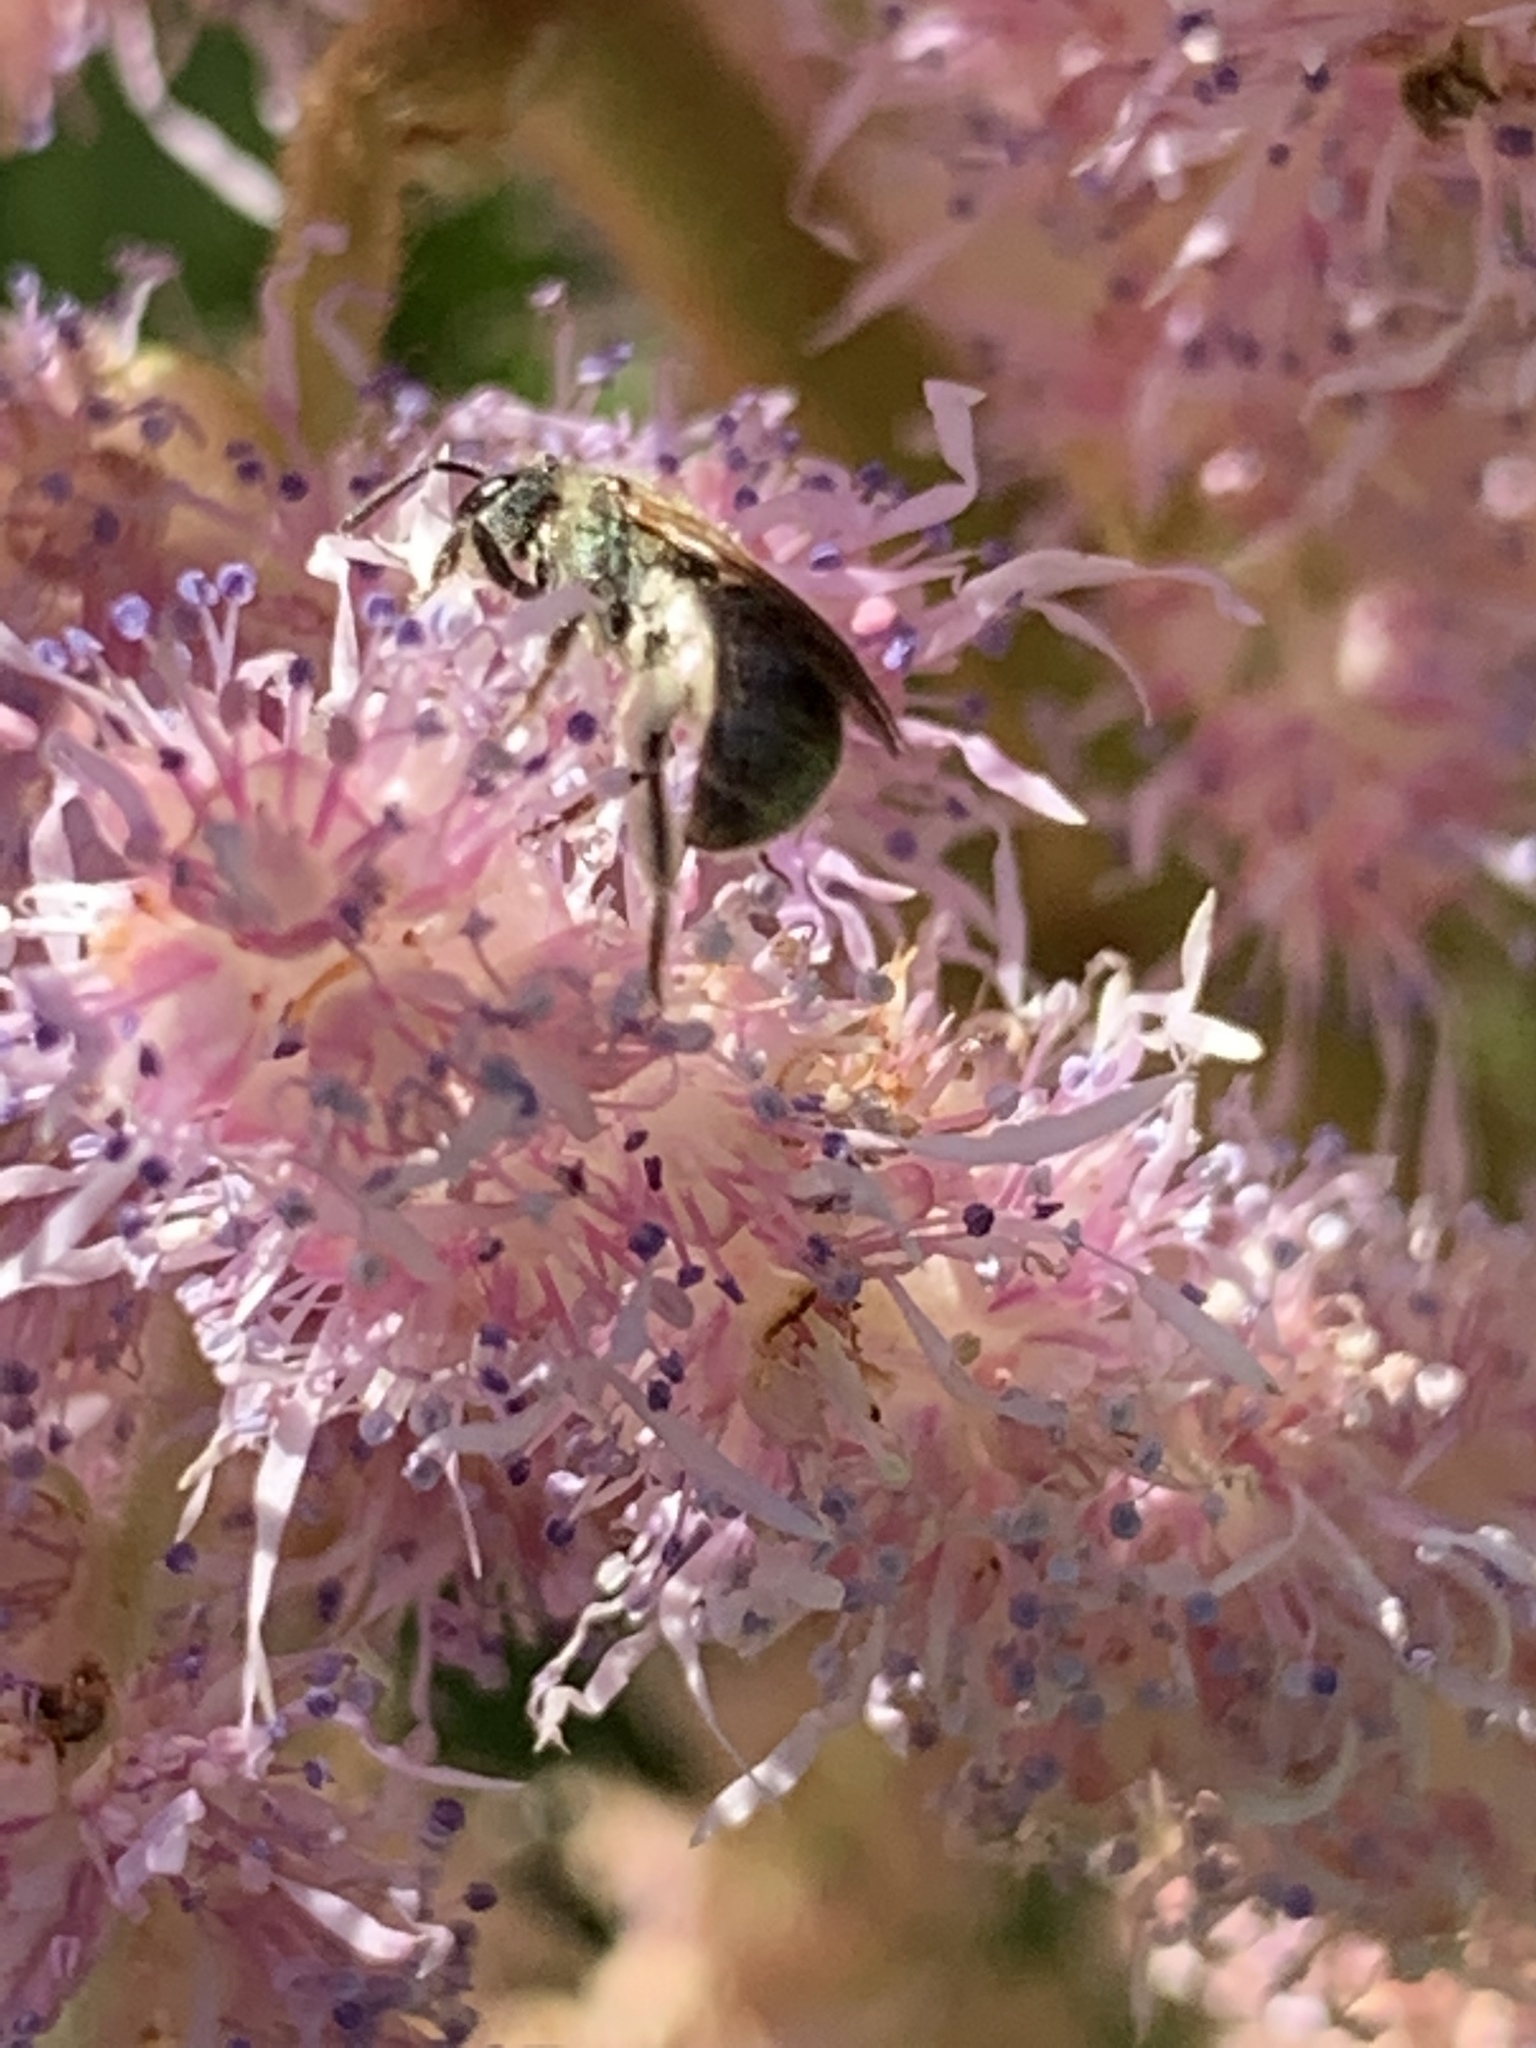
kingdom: Animalia
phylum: Arthropoda
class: Insecta
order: Hymenoptera
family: Halictidae
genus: Dialictus
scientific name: Dialictus
